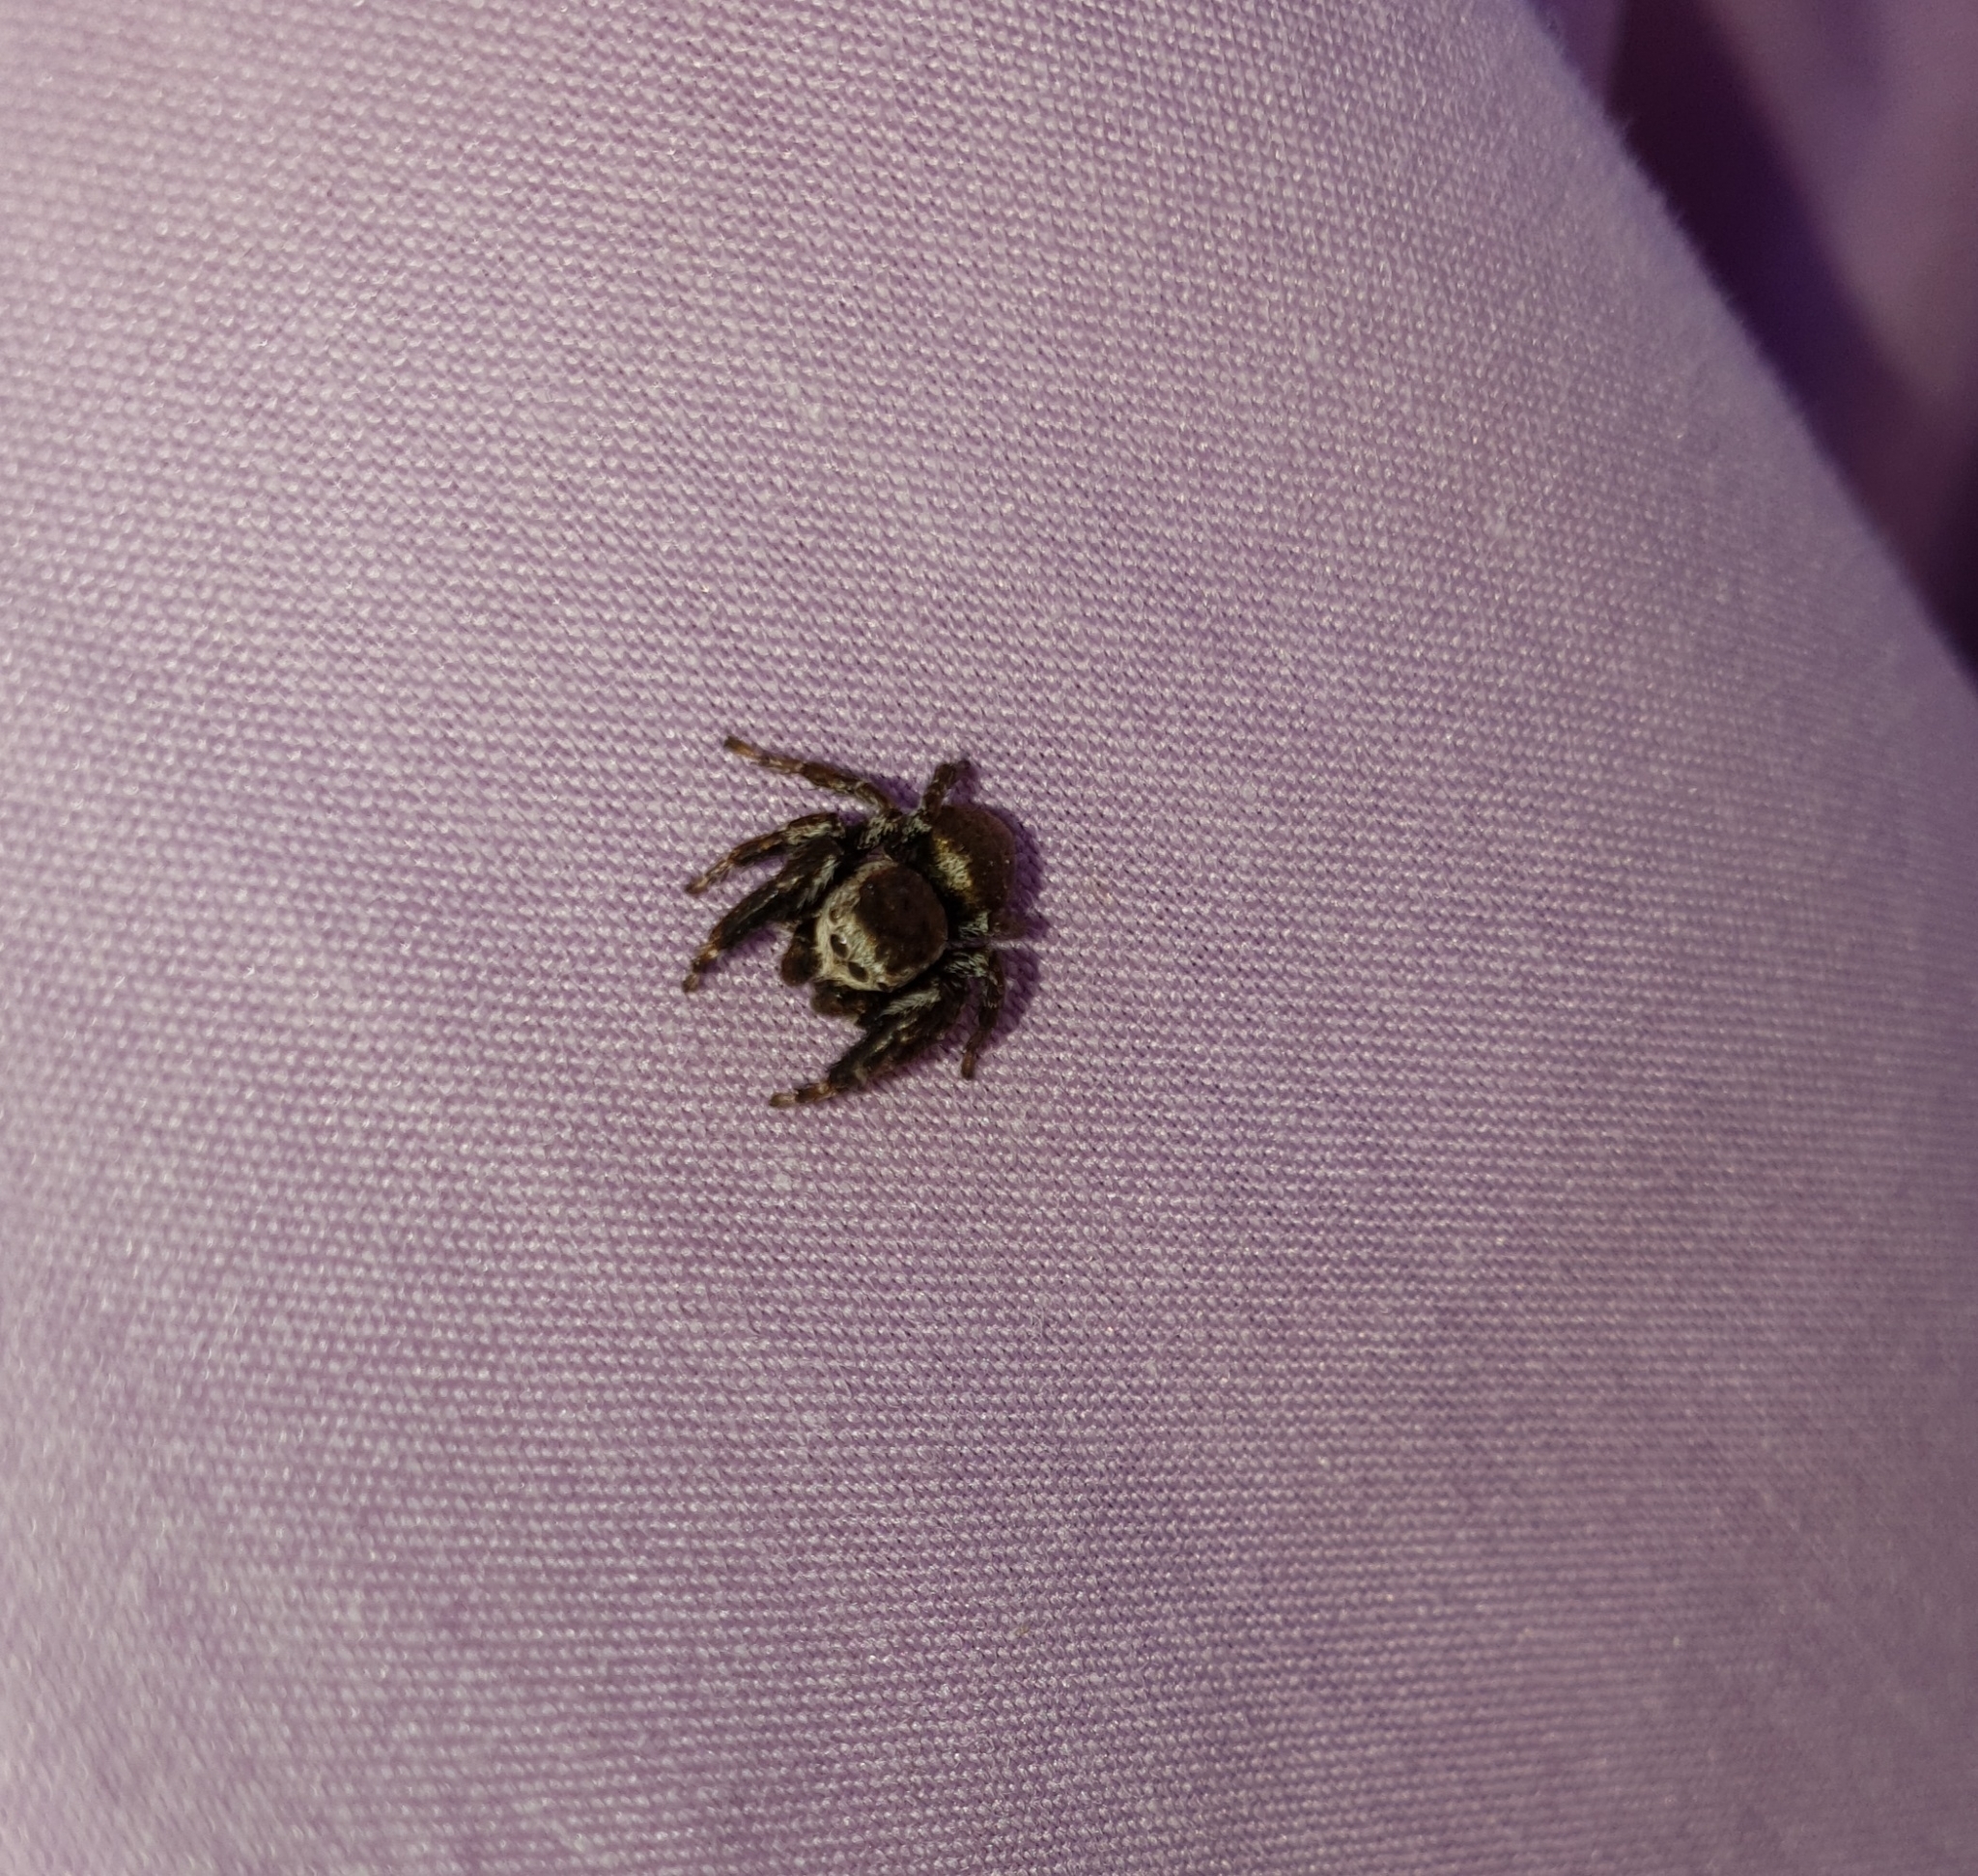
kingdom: Animalia
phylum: Arthropoda
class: Arachnida
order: Araneae
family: Salticidae
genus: Evarcha
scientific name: Evarcha arcuata
